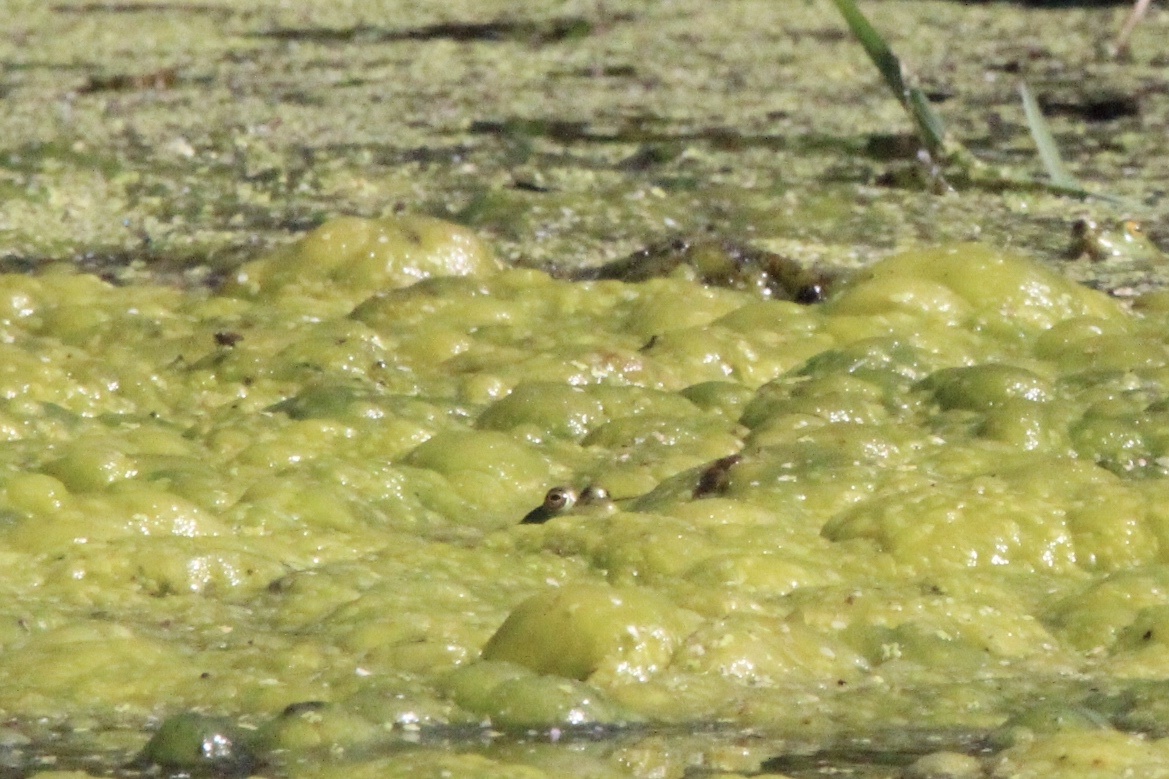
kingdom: Animalia
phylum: Chordata
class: Amphibia
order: Anura
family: Ranidae
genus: Lithobates
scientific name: Lithobates catesbeianus
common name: American bullfrog
